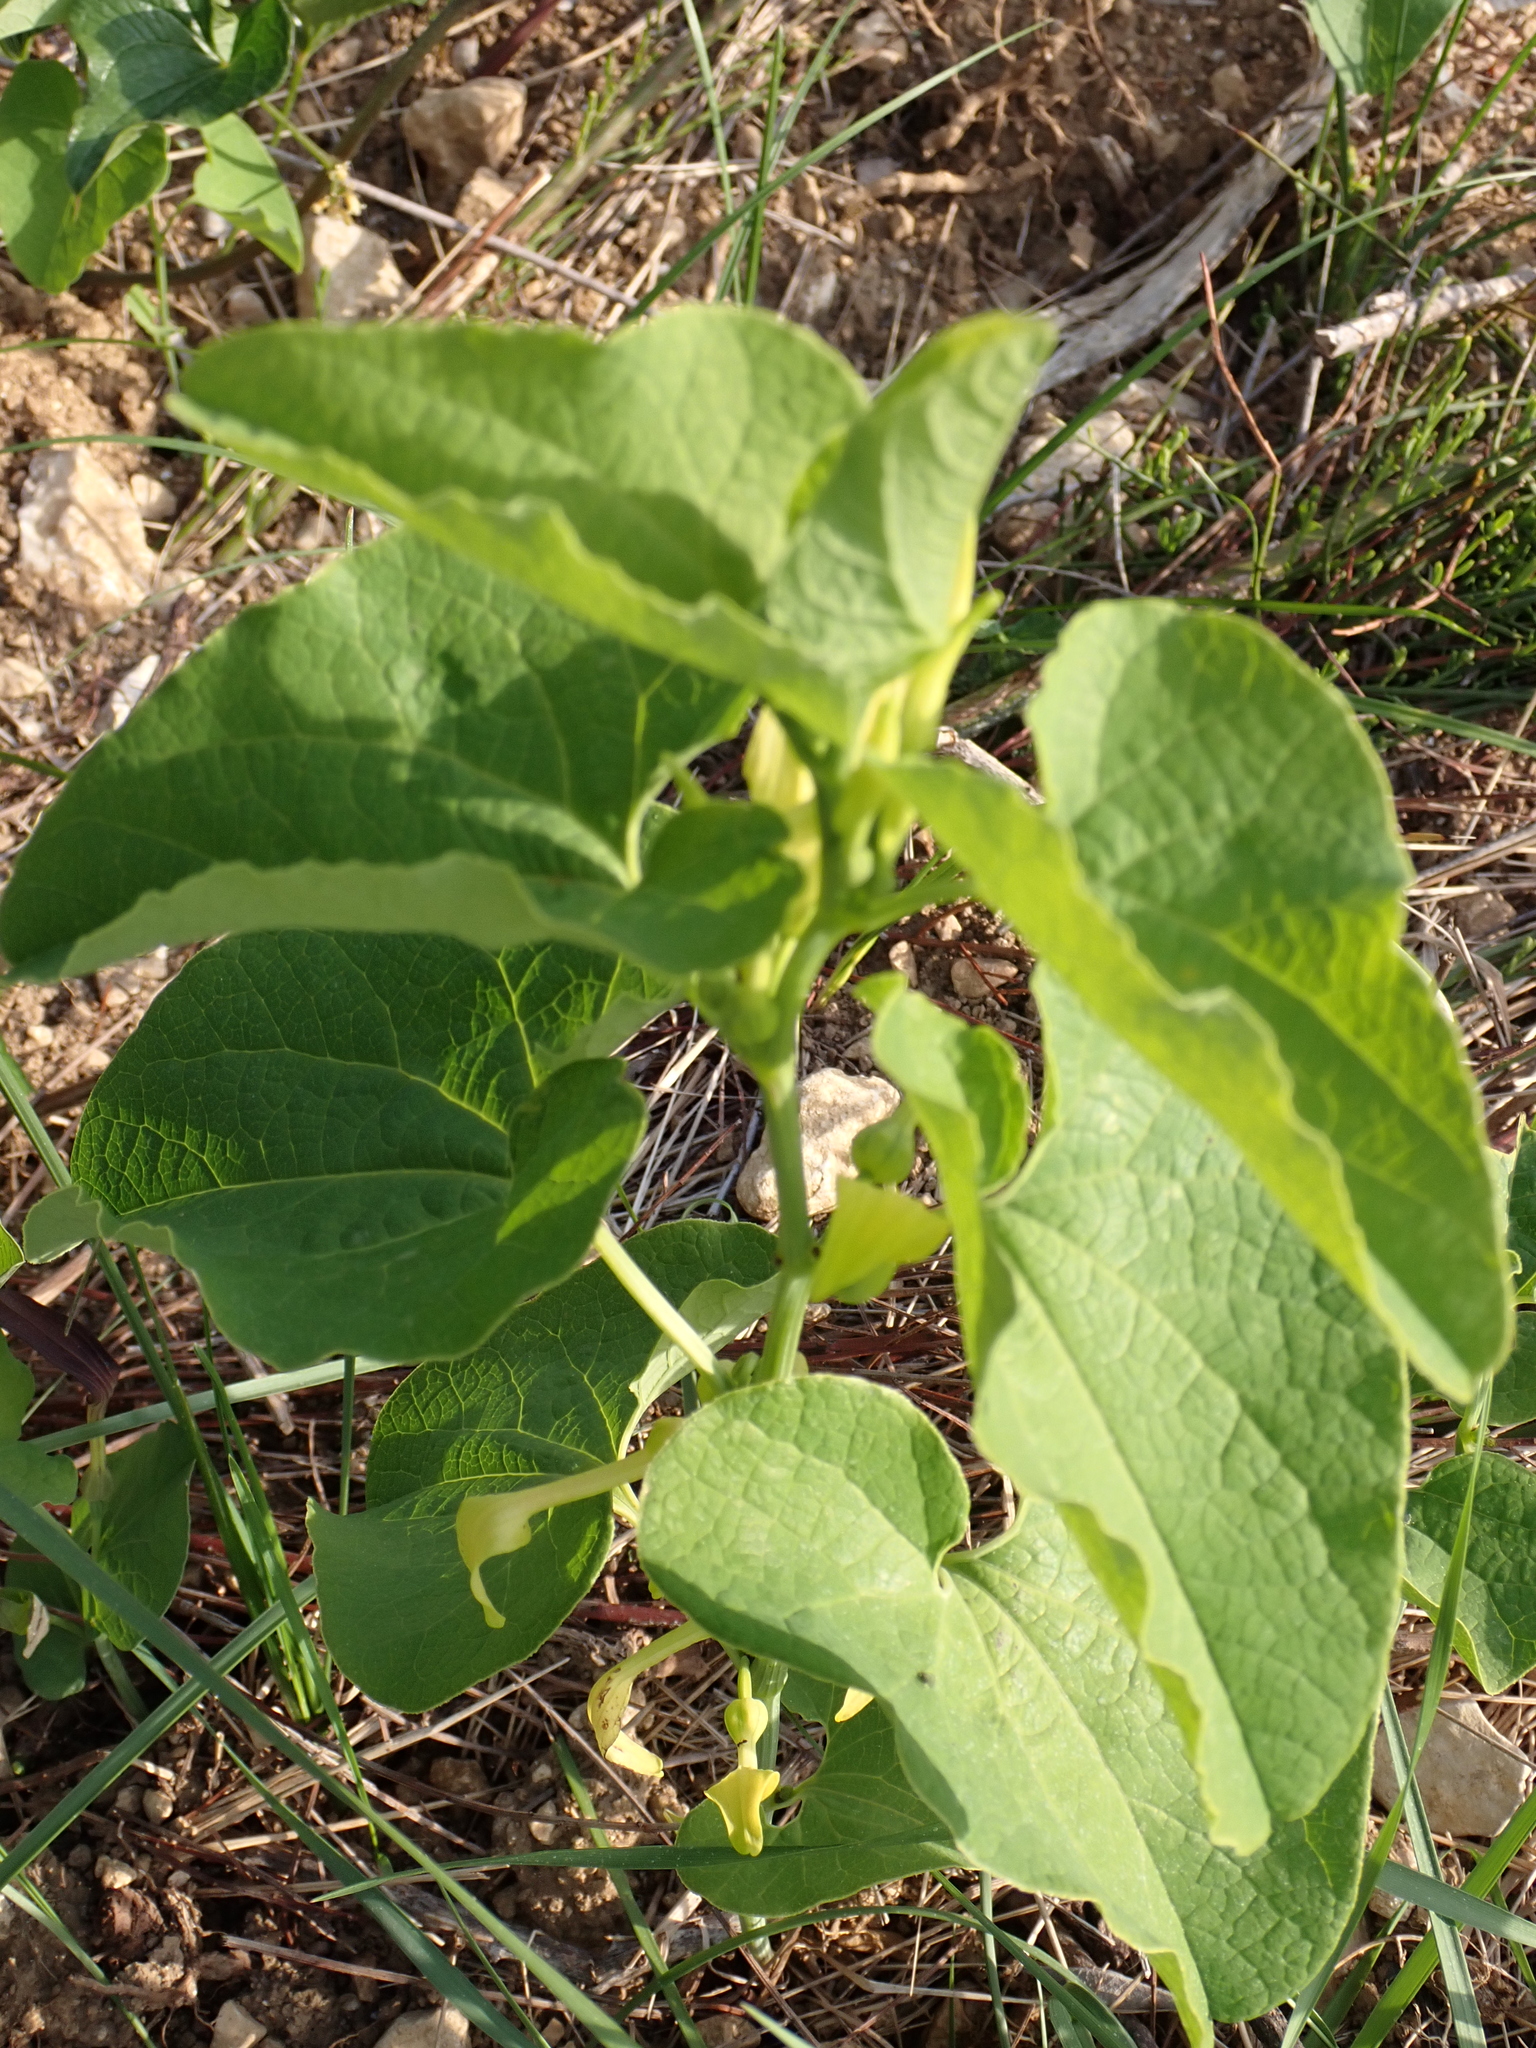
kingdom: Plantae
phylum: Tracheophyta
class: Magnoliopsida
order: Piperales
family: Aristolochiaceae
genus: Aristolochia
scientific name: Aristolochia clematitis
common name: Birthwort
